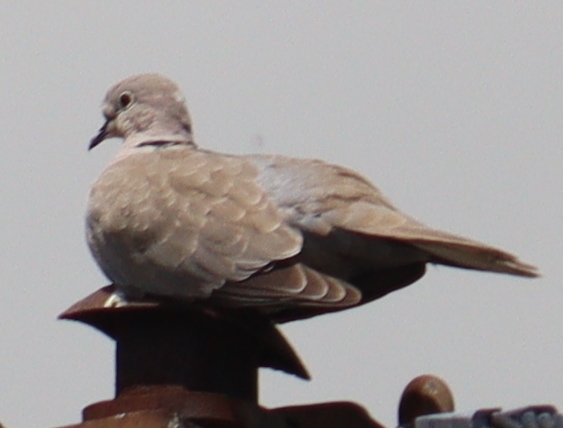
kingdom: Animalia
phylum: Chordata
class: Aves
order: Columbiformes
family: Columbidae
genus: Streptopelia
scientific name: Streptopelia decaocto
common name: Eurasian collared dove
